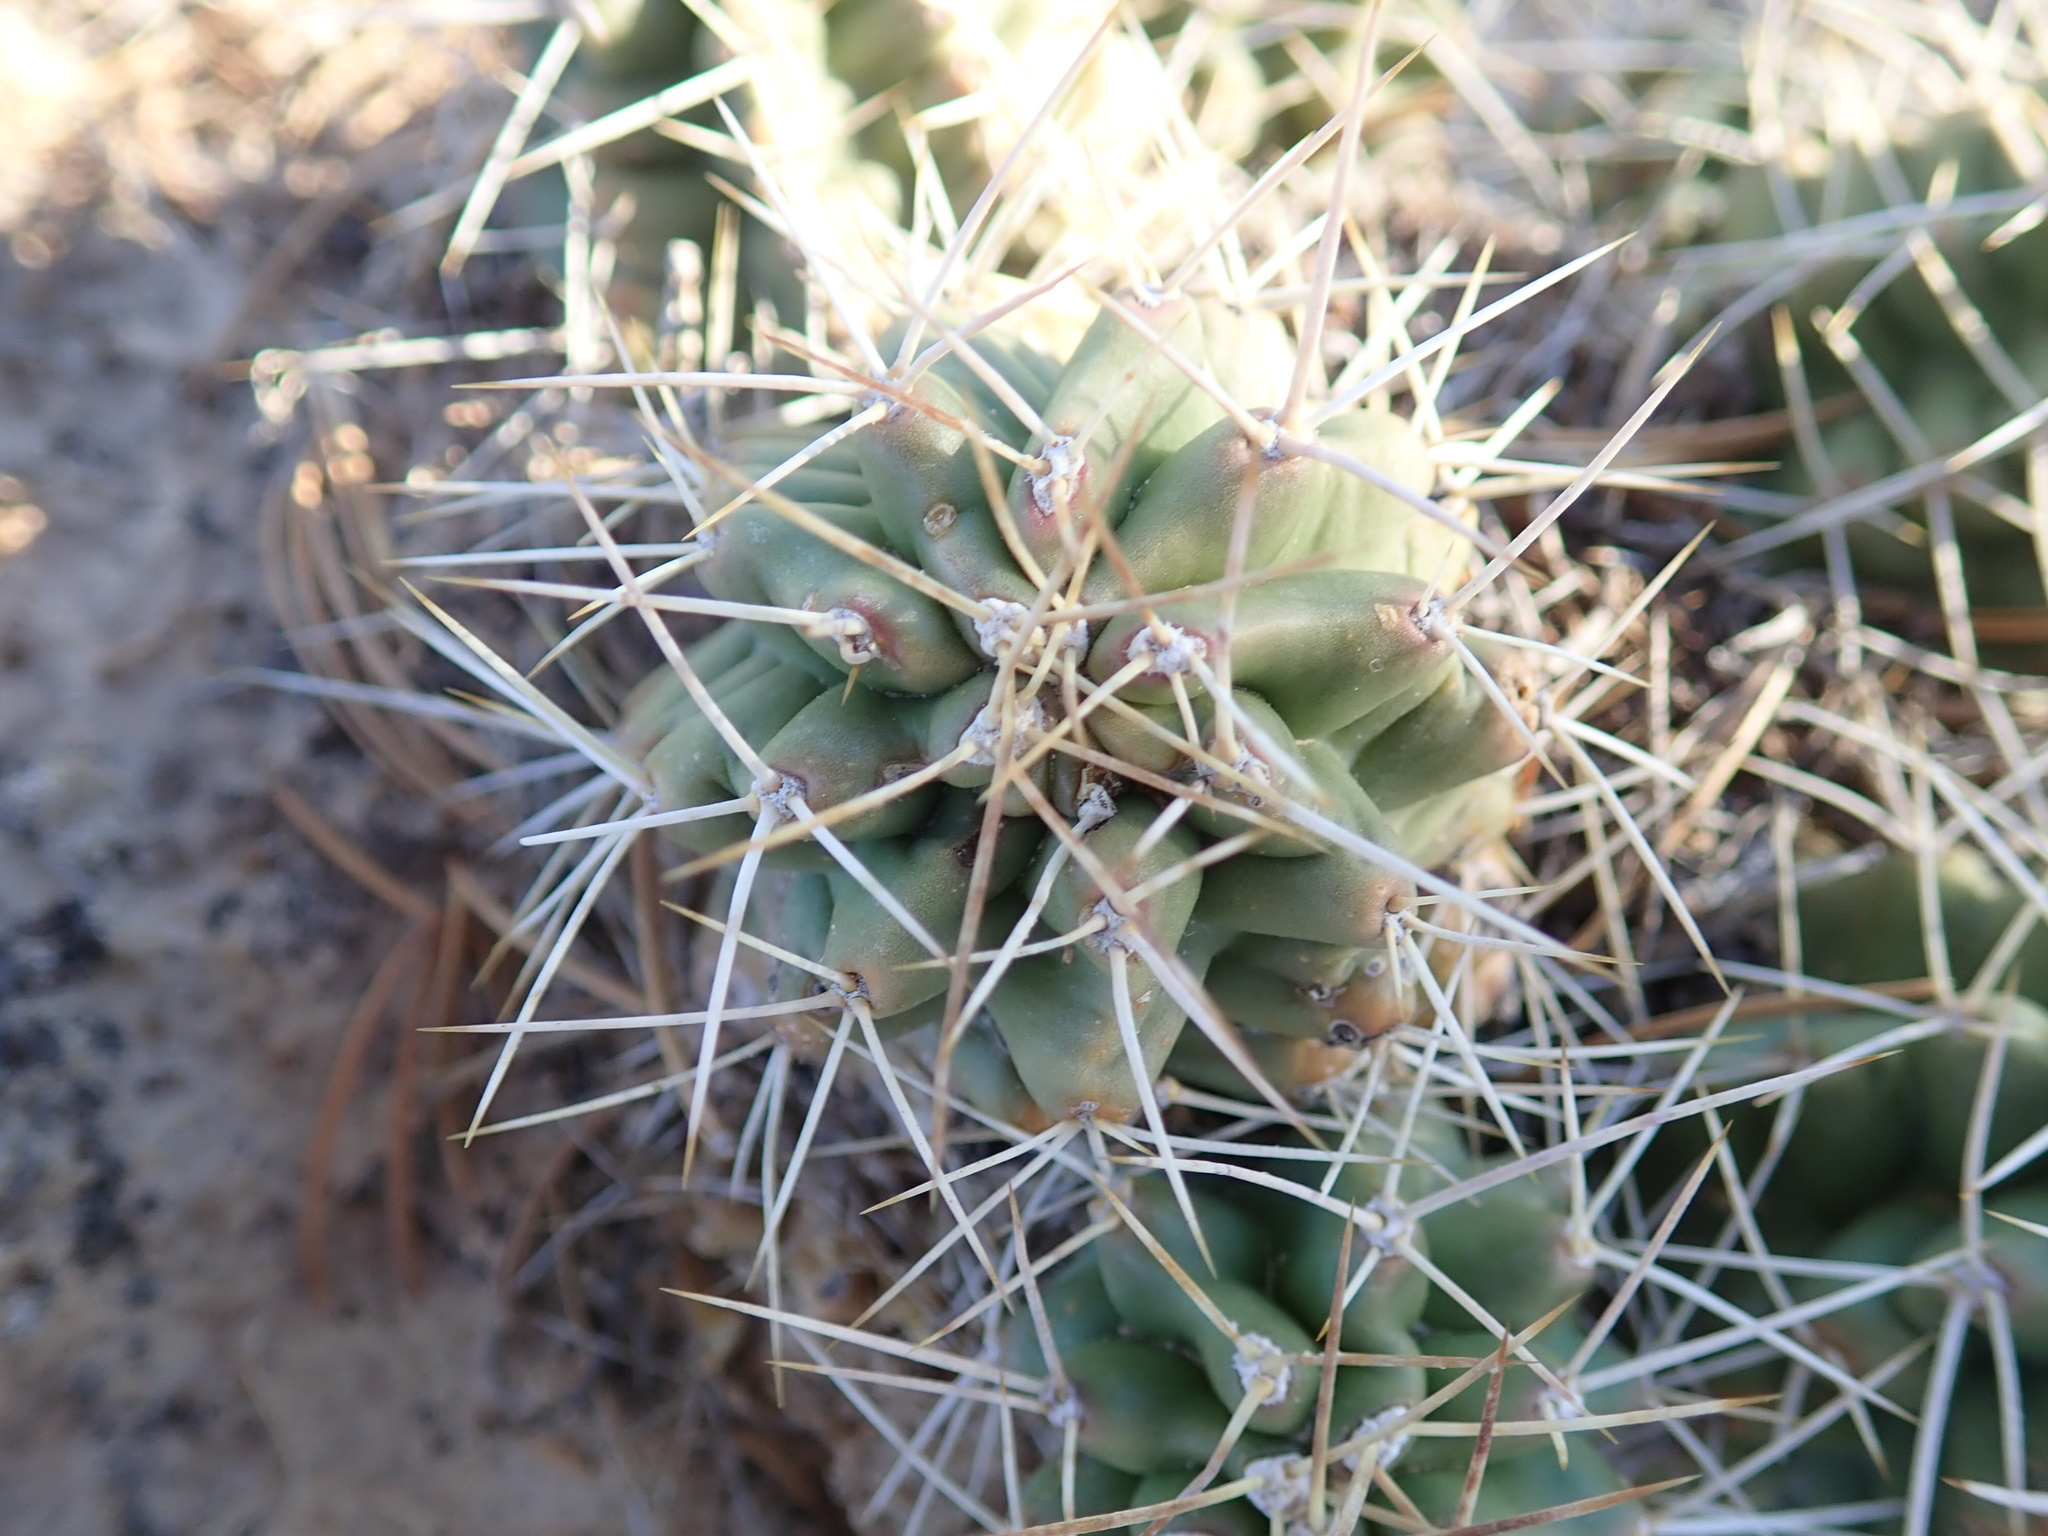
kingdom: Plantae
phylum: Tracheophyta
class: Magnoliopsida
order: Caryophyllales
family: Cactaceae
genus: Echinocereus
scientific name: Echinocereus triglochidiatus
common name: Claretcup hedgehog
